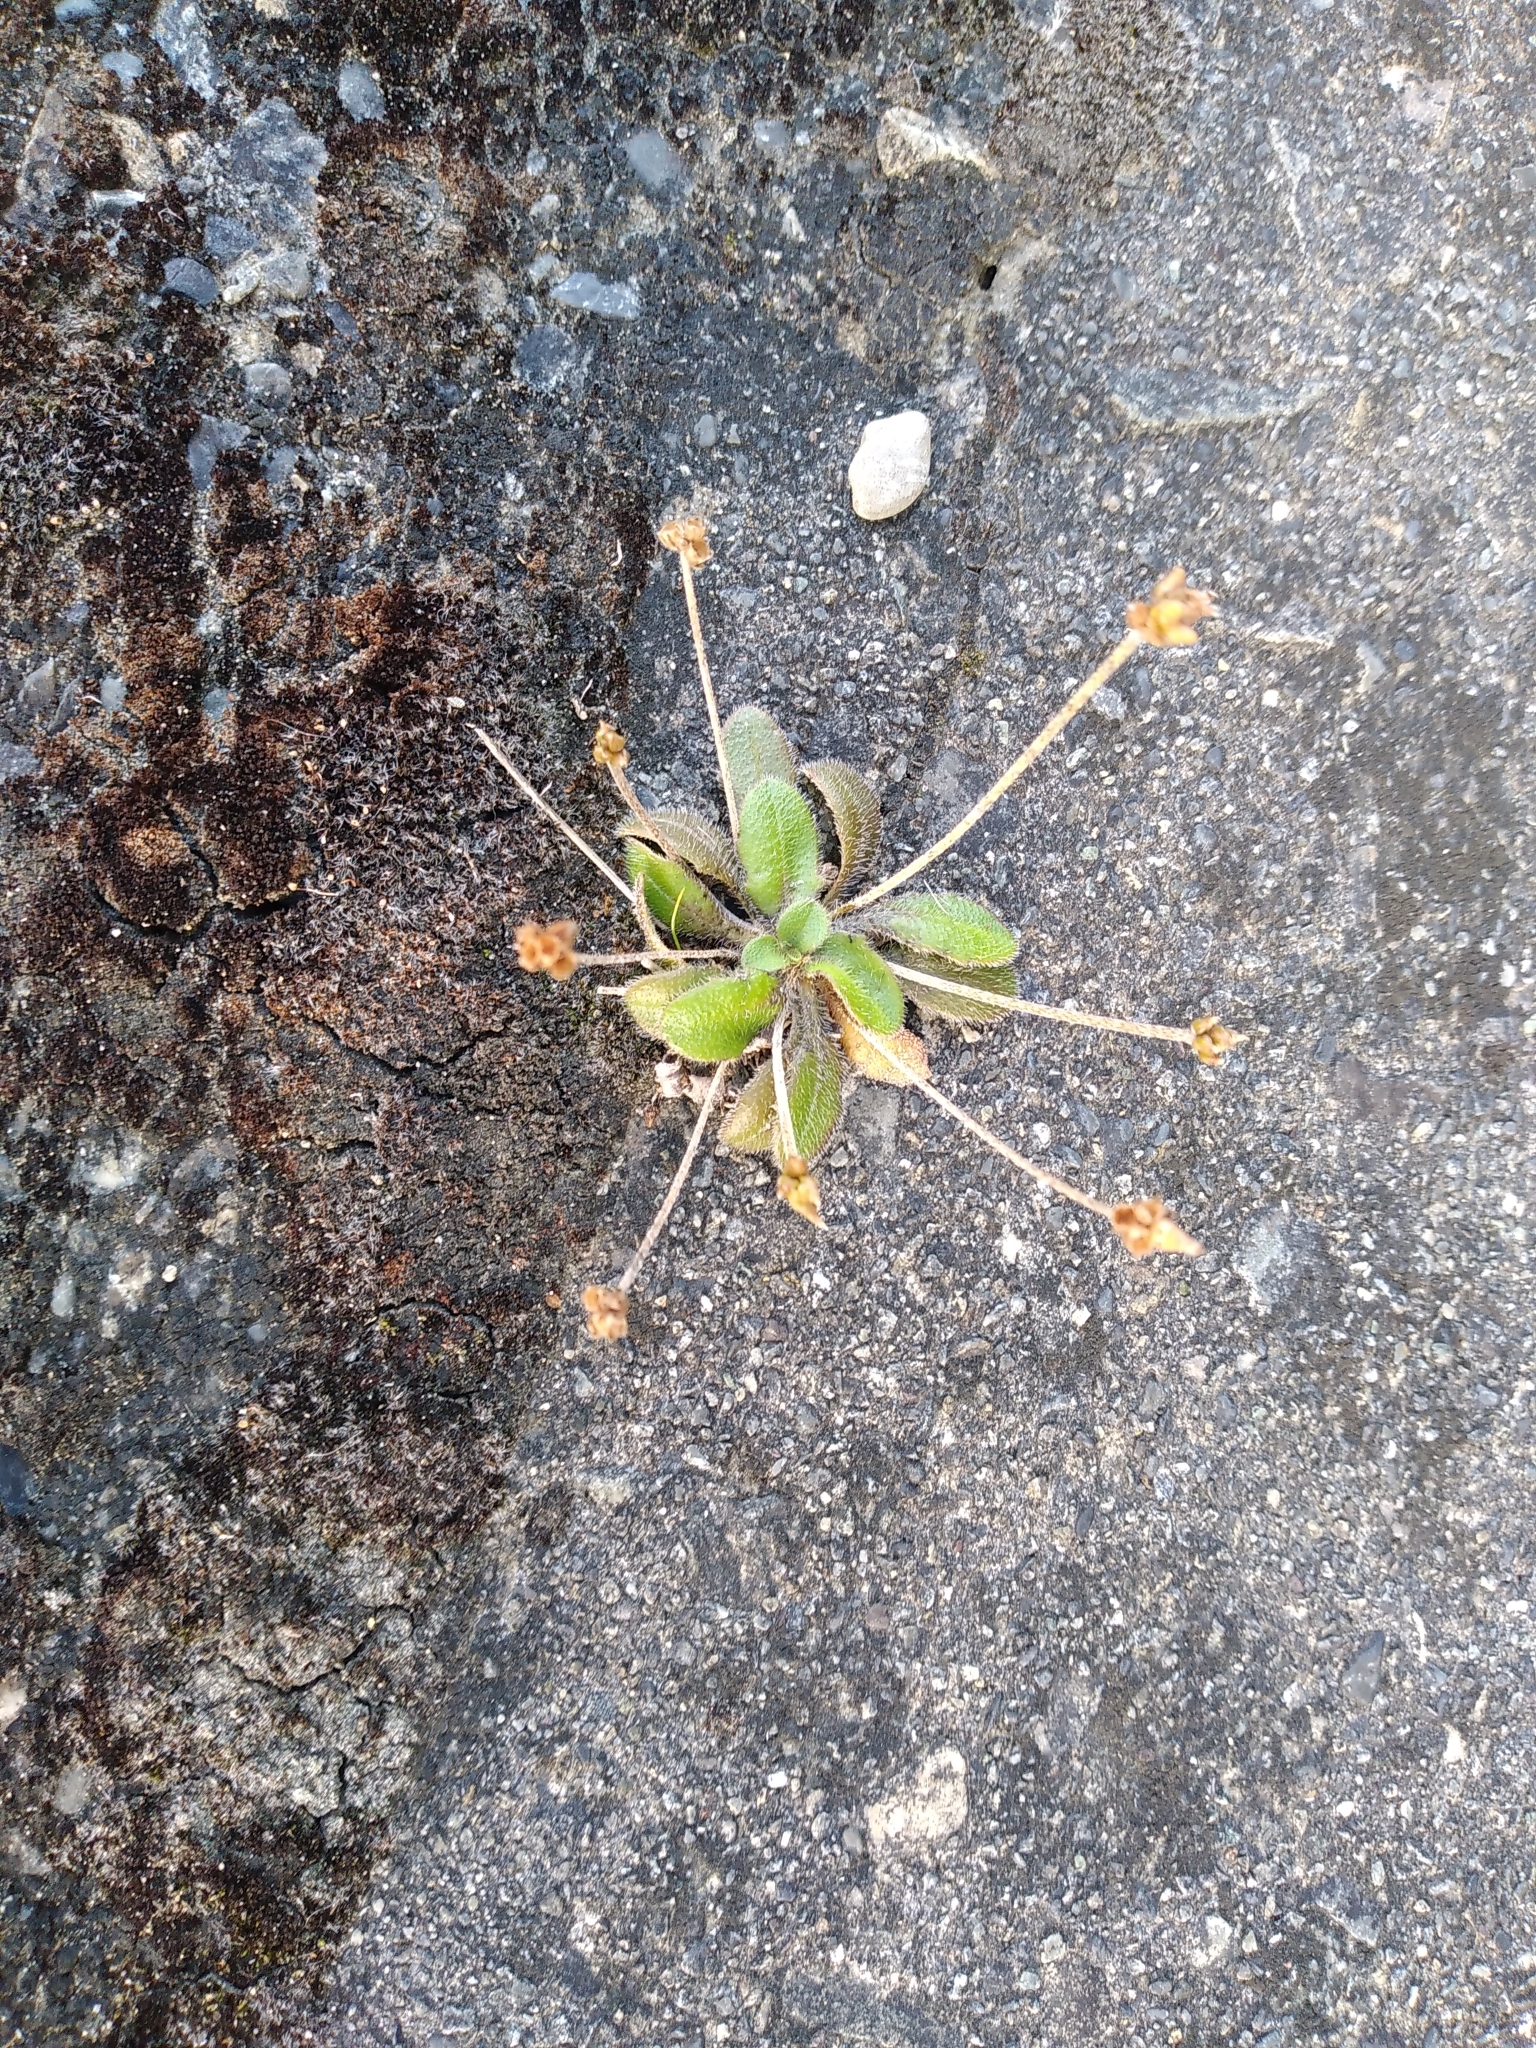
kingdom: Plantae
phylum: Tracheophyta
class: Magnoliopsida
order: Lamiales
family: Plantaginaceae
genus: Plantago
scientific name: Plantago raoulii
